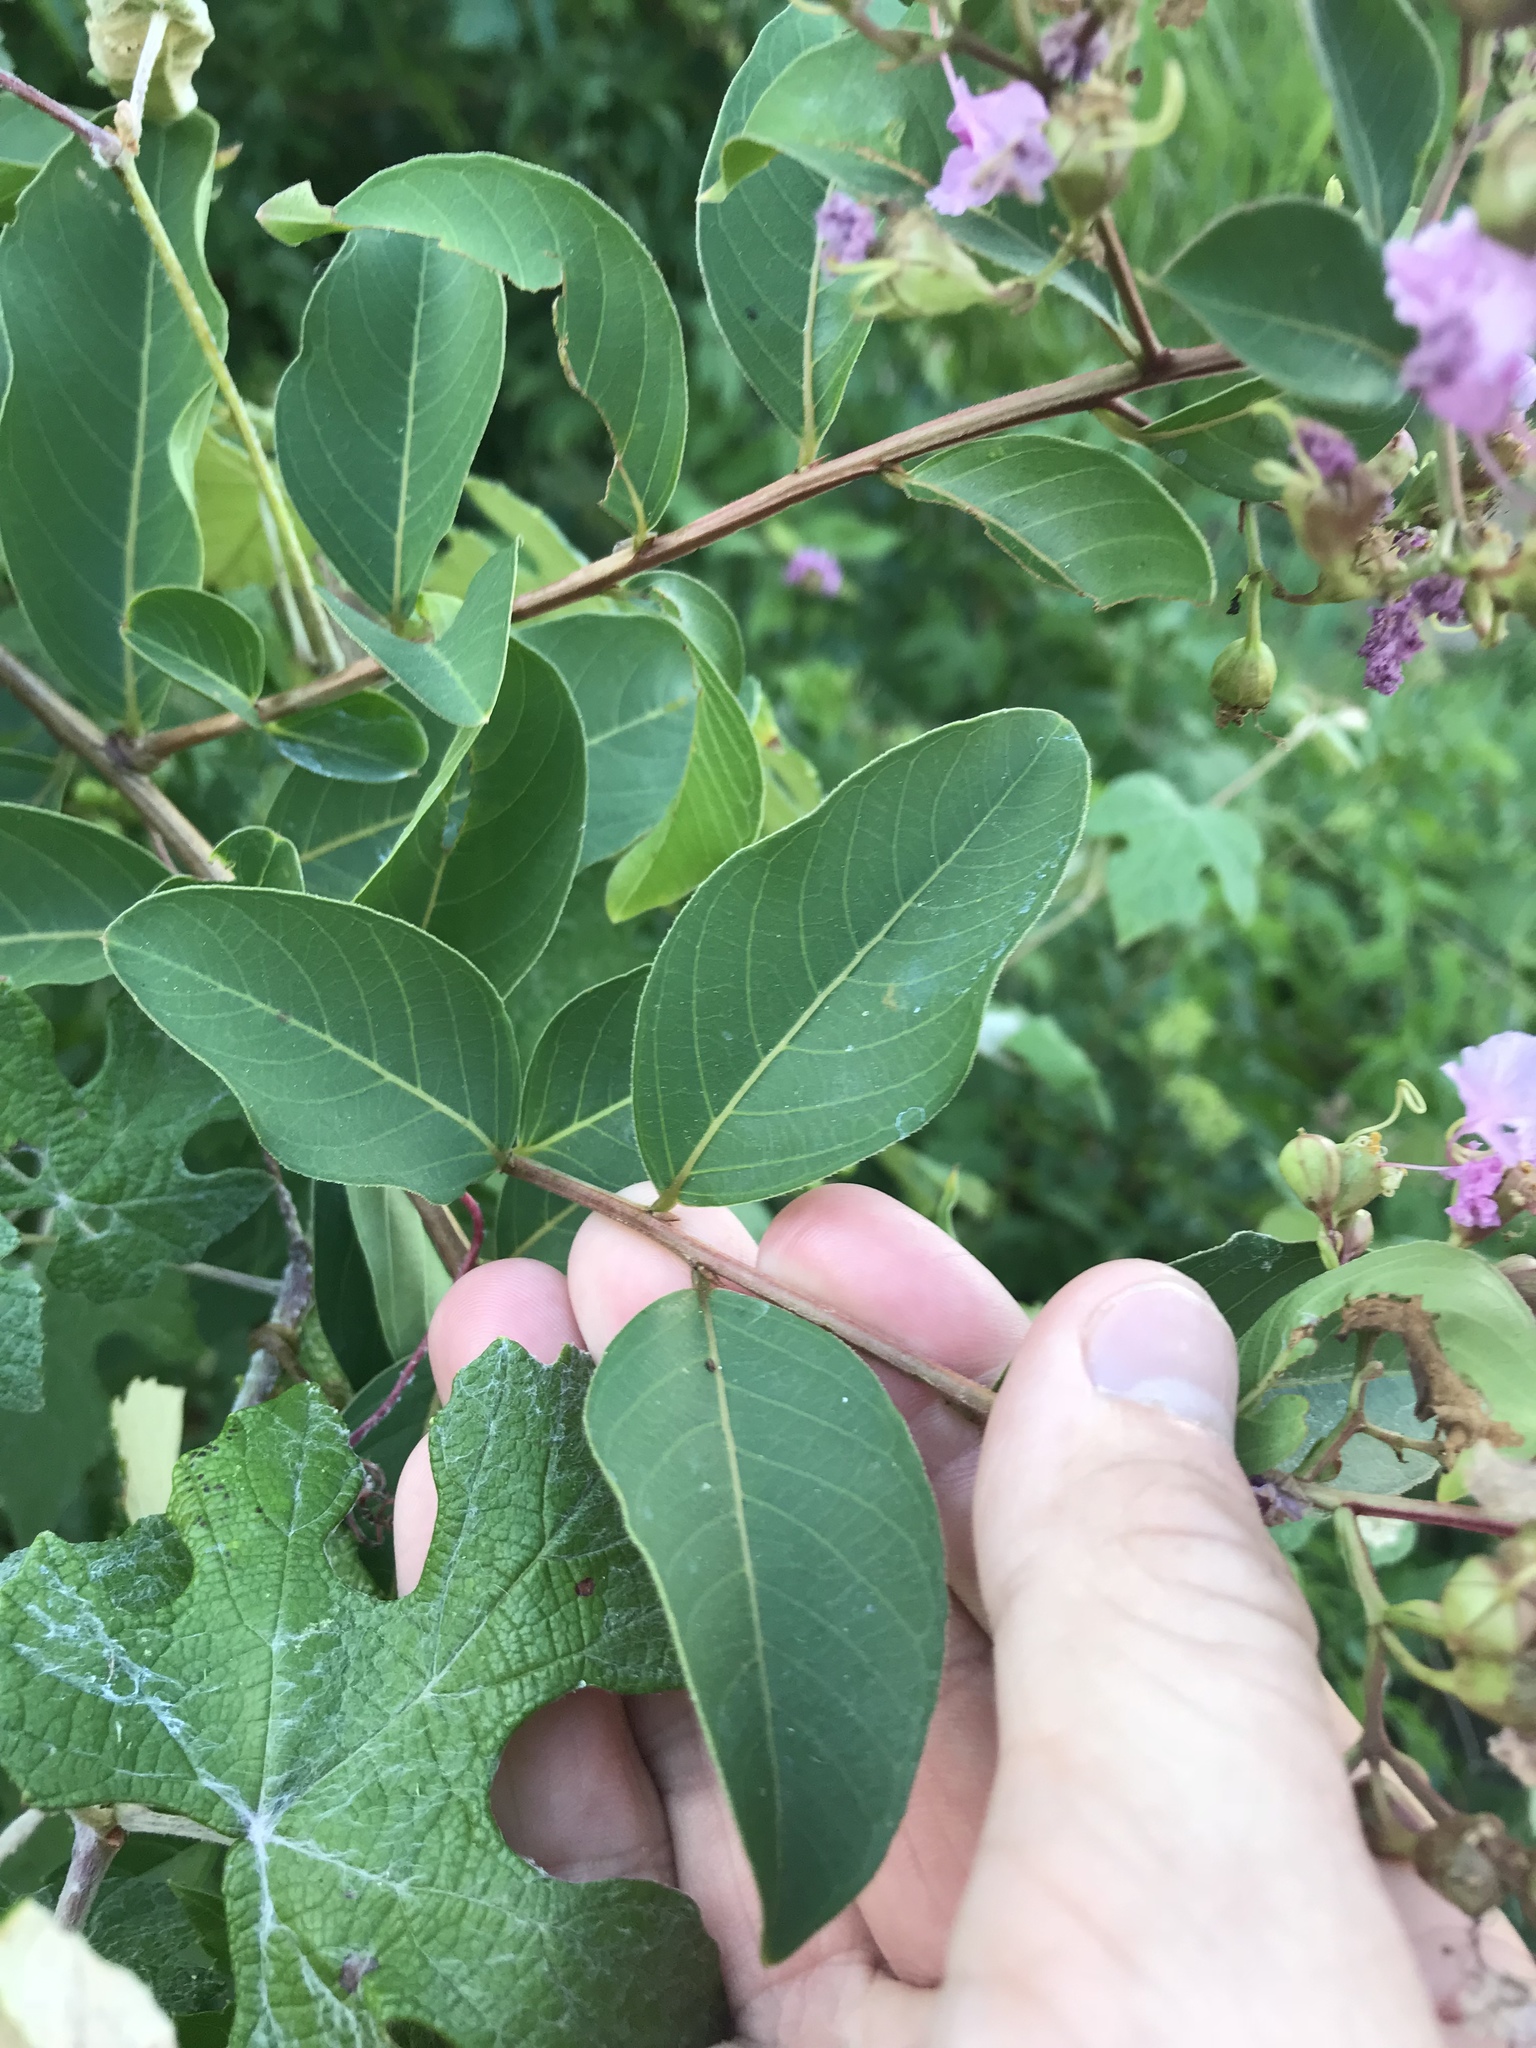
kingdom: Plantae
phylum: Tracheophyta
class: Magnoliopsida
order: Myrtales
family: Lythraceae
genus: Lagerstroemia
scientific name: Lagerstroemia indica
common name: Crape-myrtle
